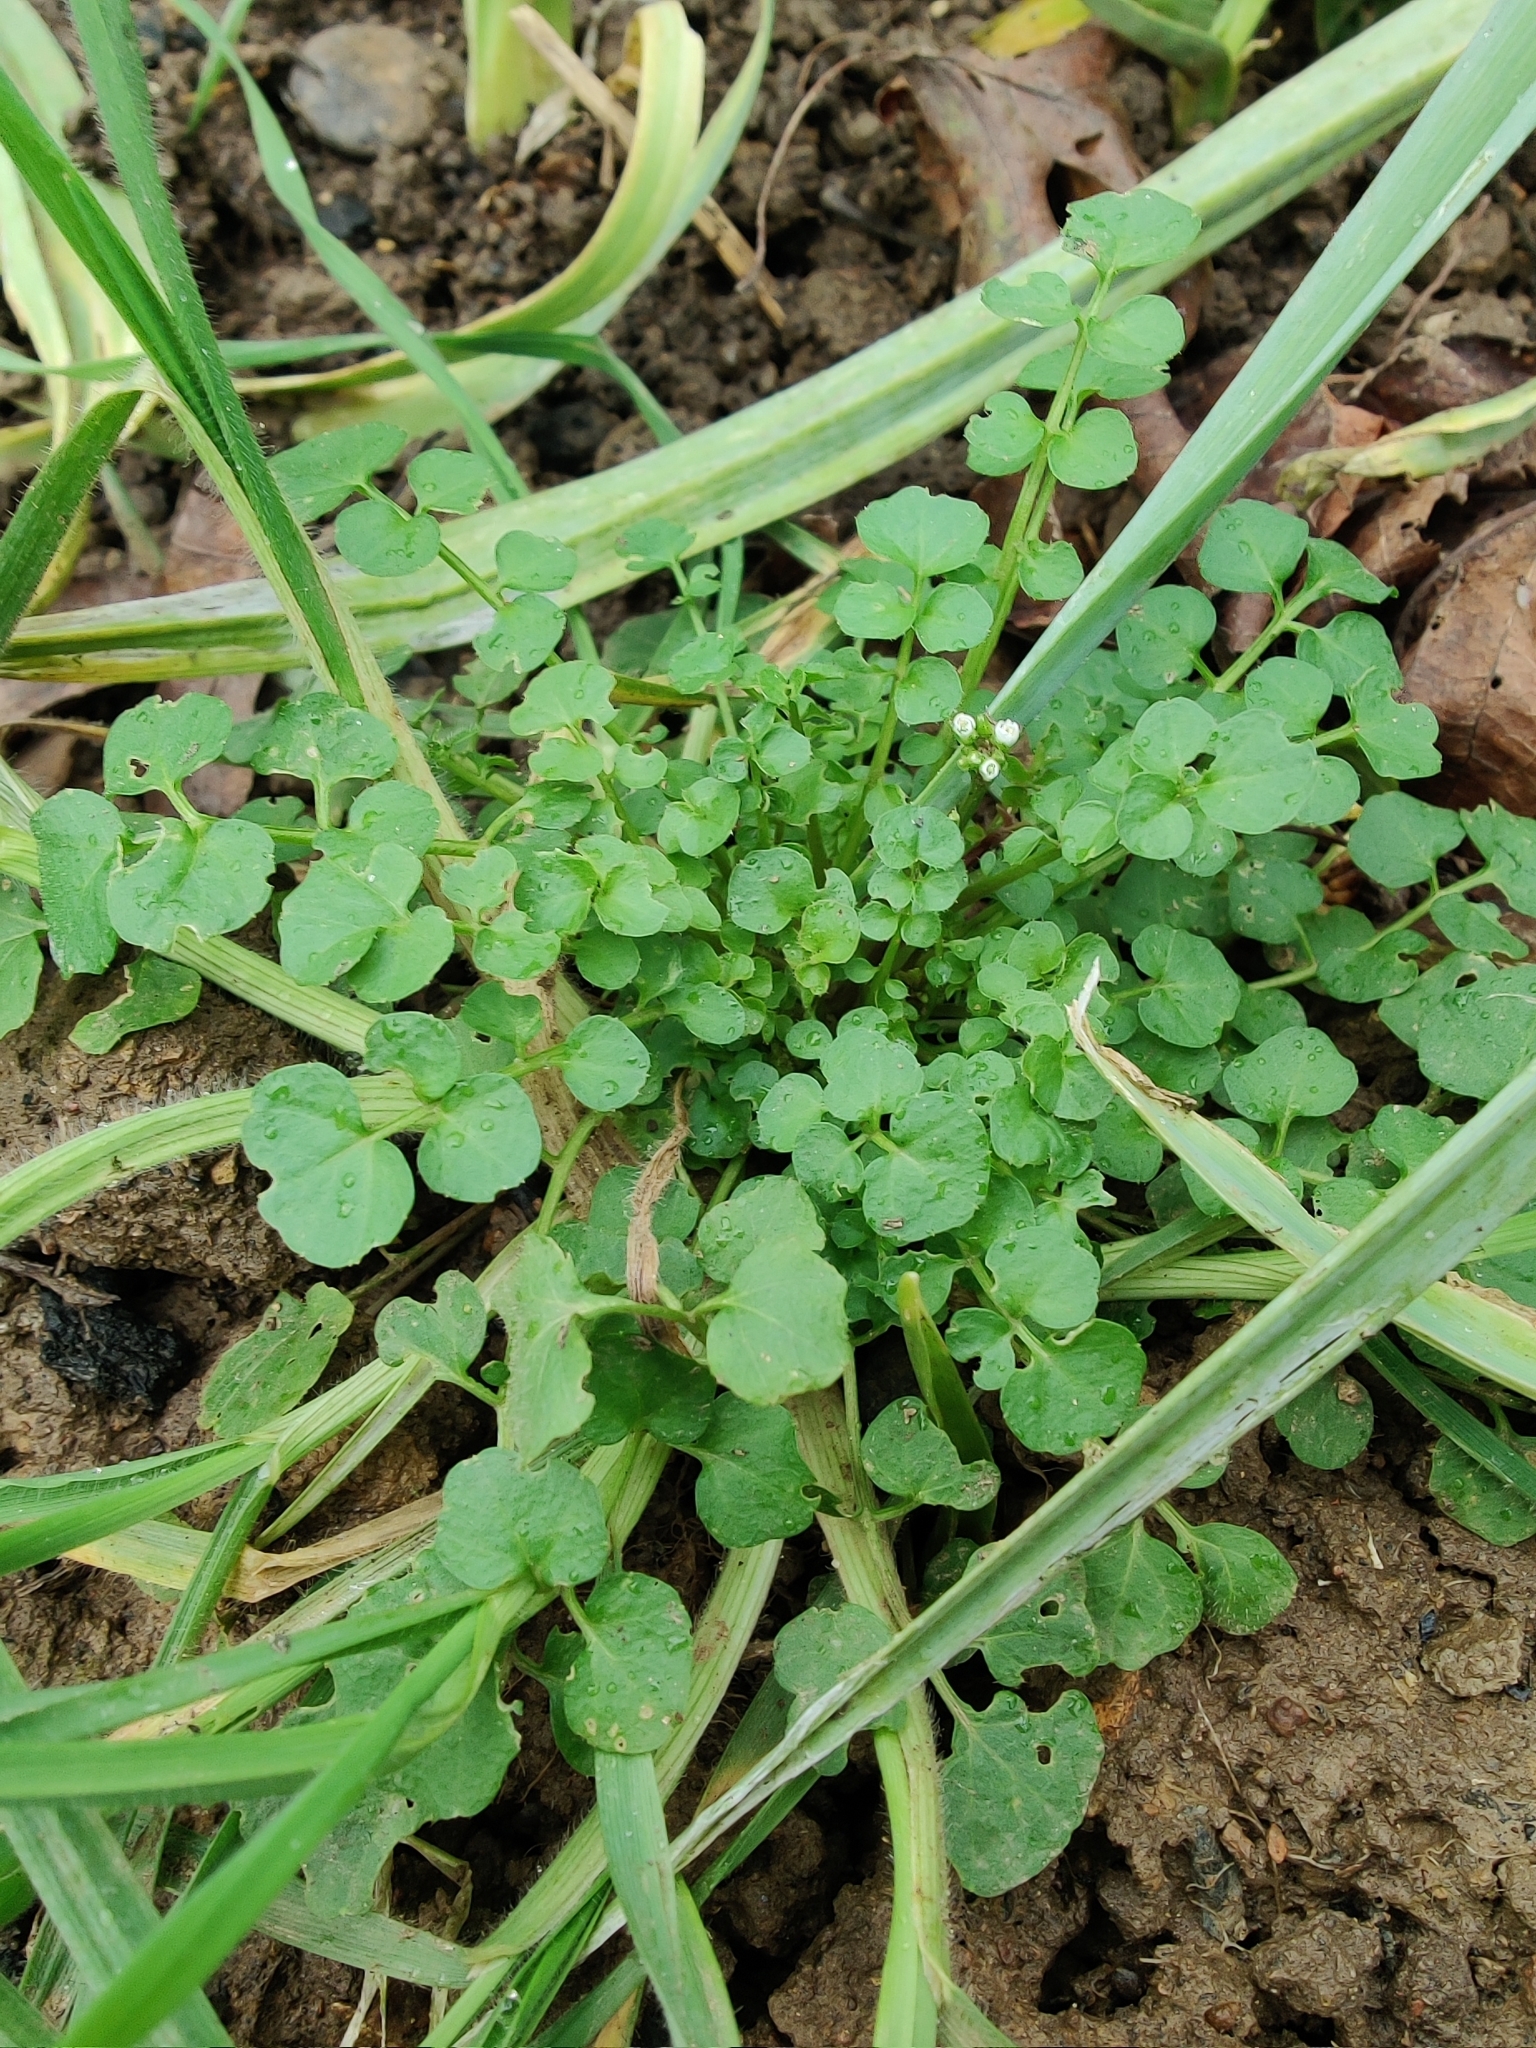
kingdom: Plantae
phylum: Tracheophyta
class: Magnoliopsida
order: Brassicales
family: Brassicaceae
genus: Cardamine
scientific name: Cardamine hirsuta
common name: Hairy bittercress
